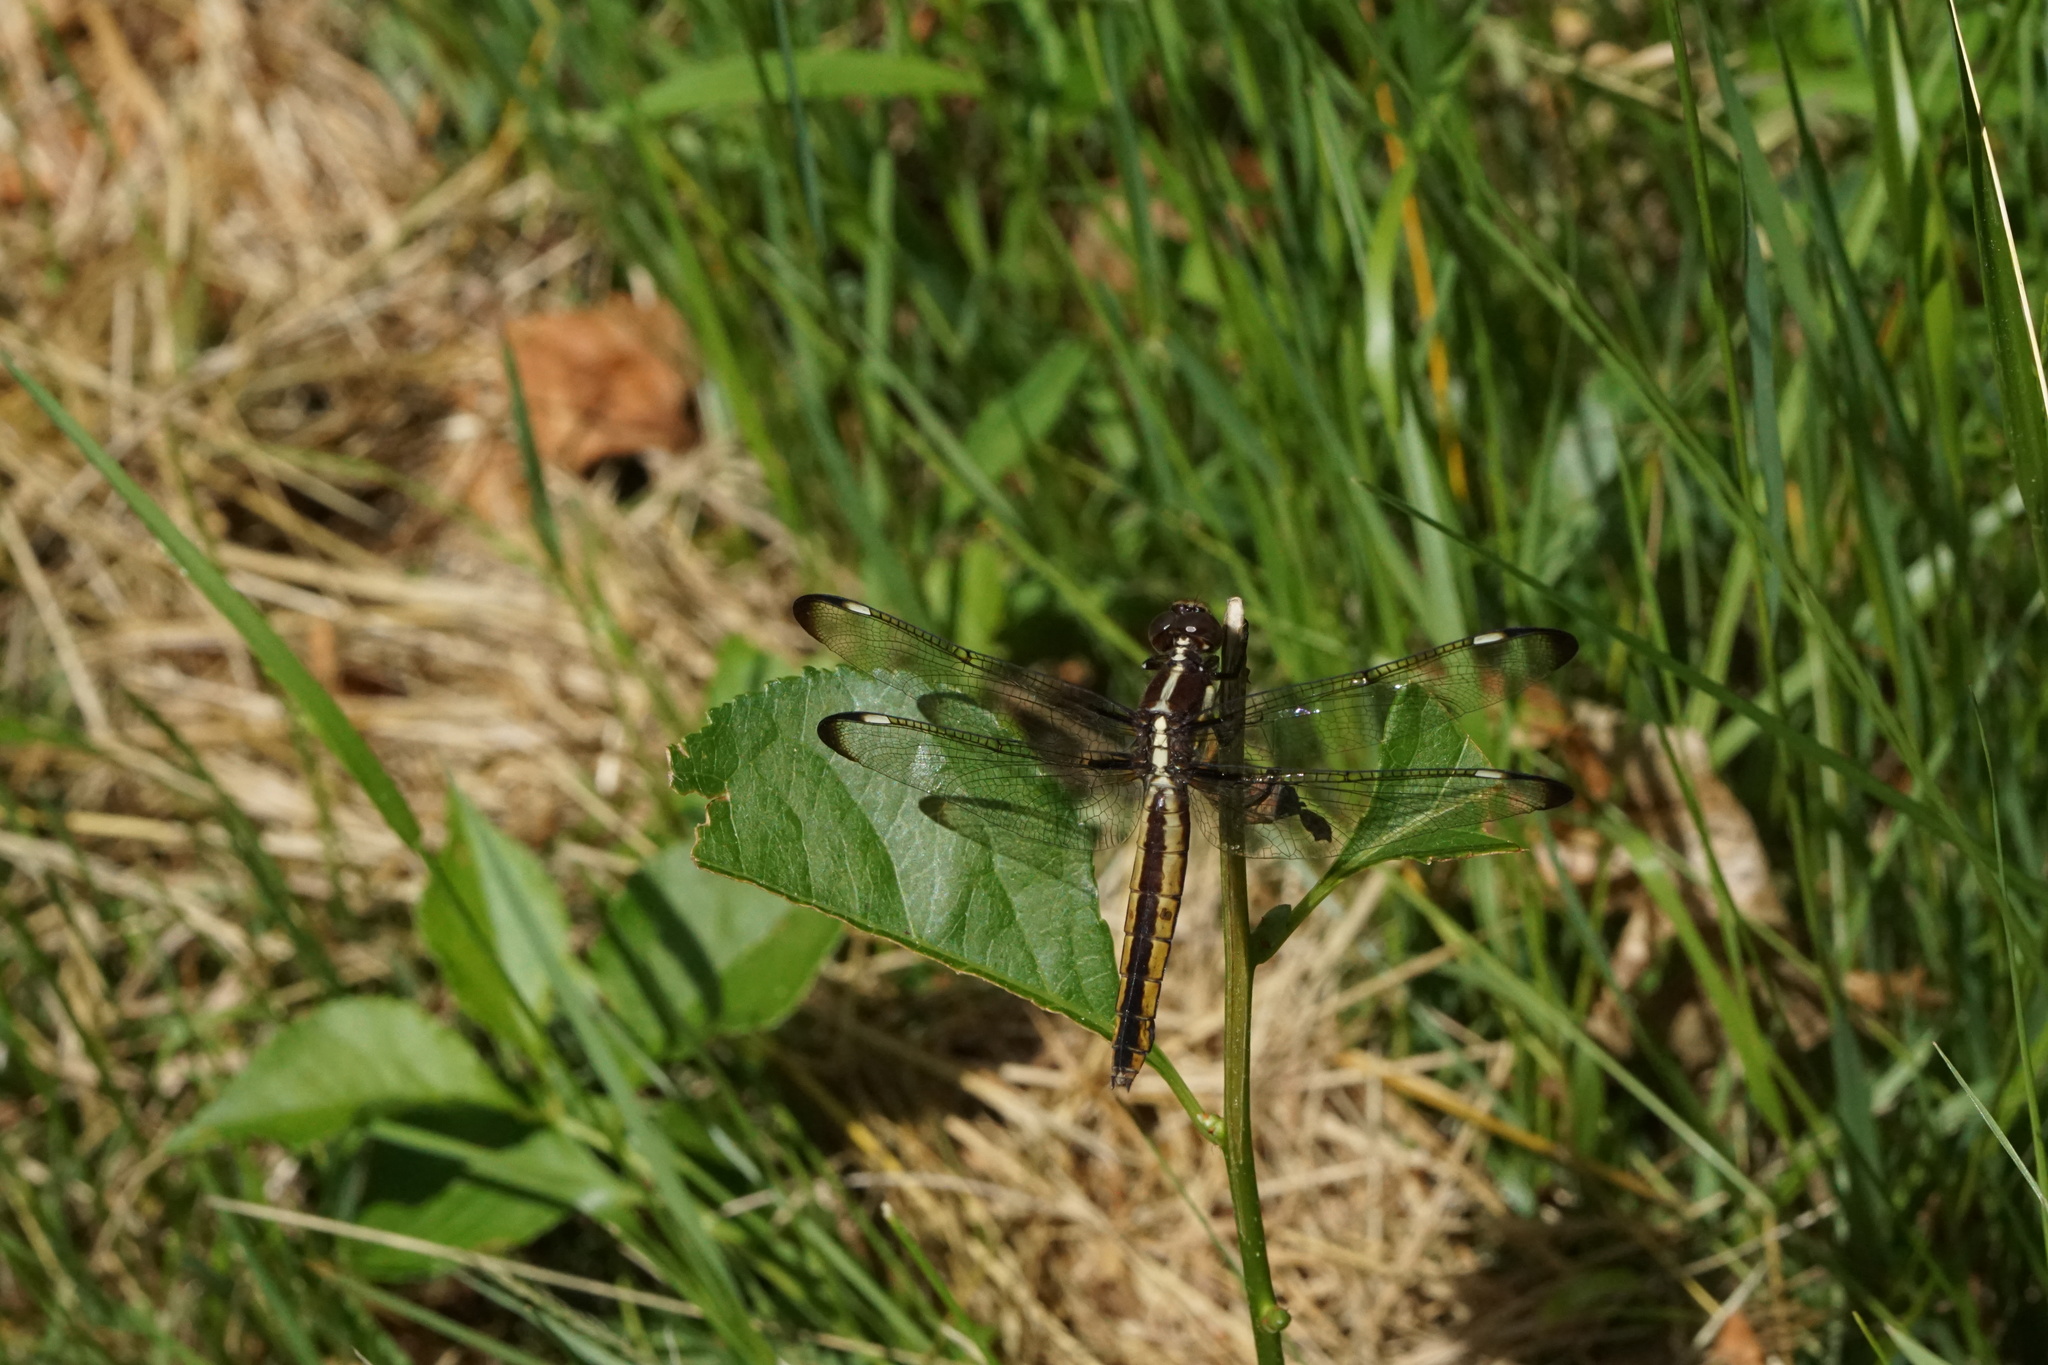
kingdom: Animalia
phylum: Arthropoda
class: Insecta
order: Odonata
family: Libellulidae
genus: Libellula
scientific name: Libellula cyanea
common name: Spangled skimmer
